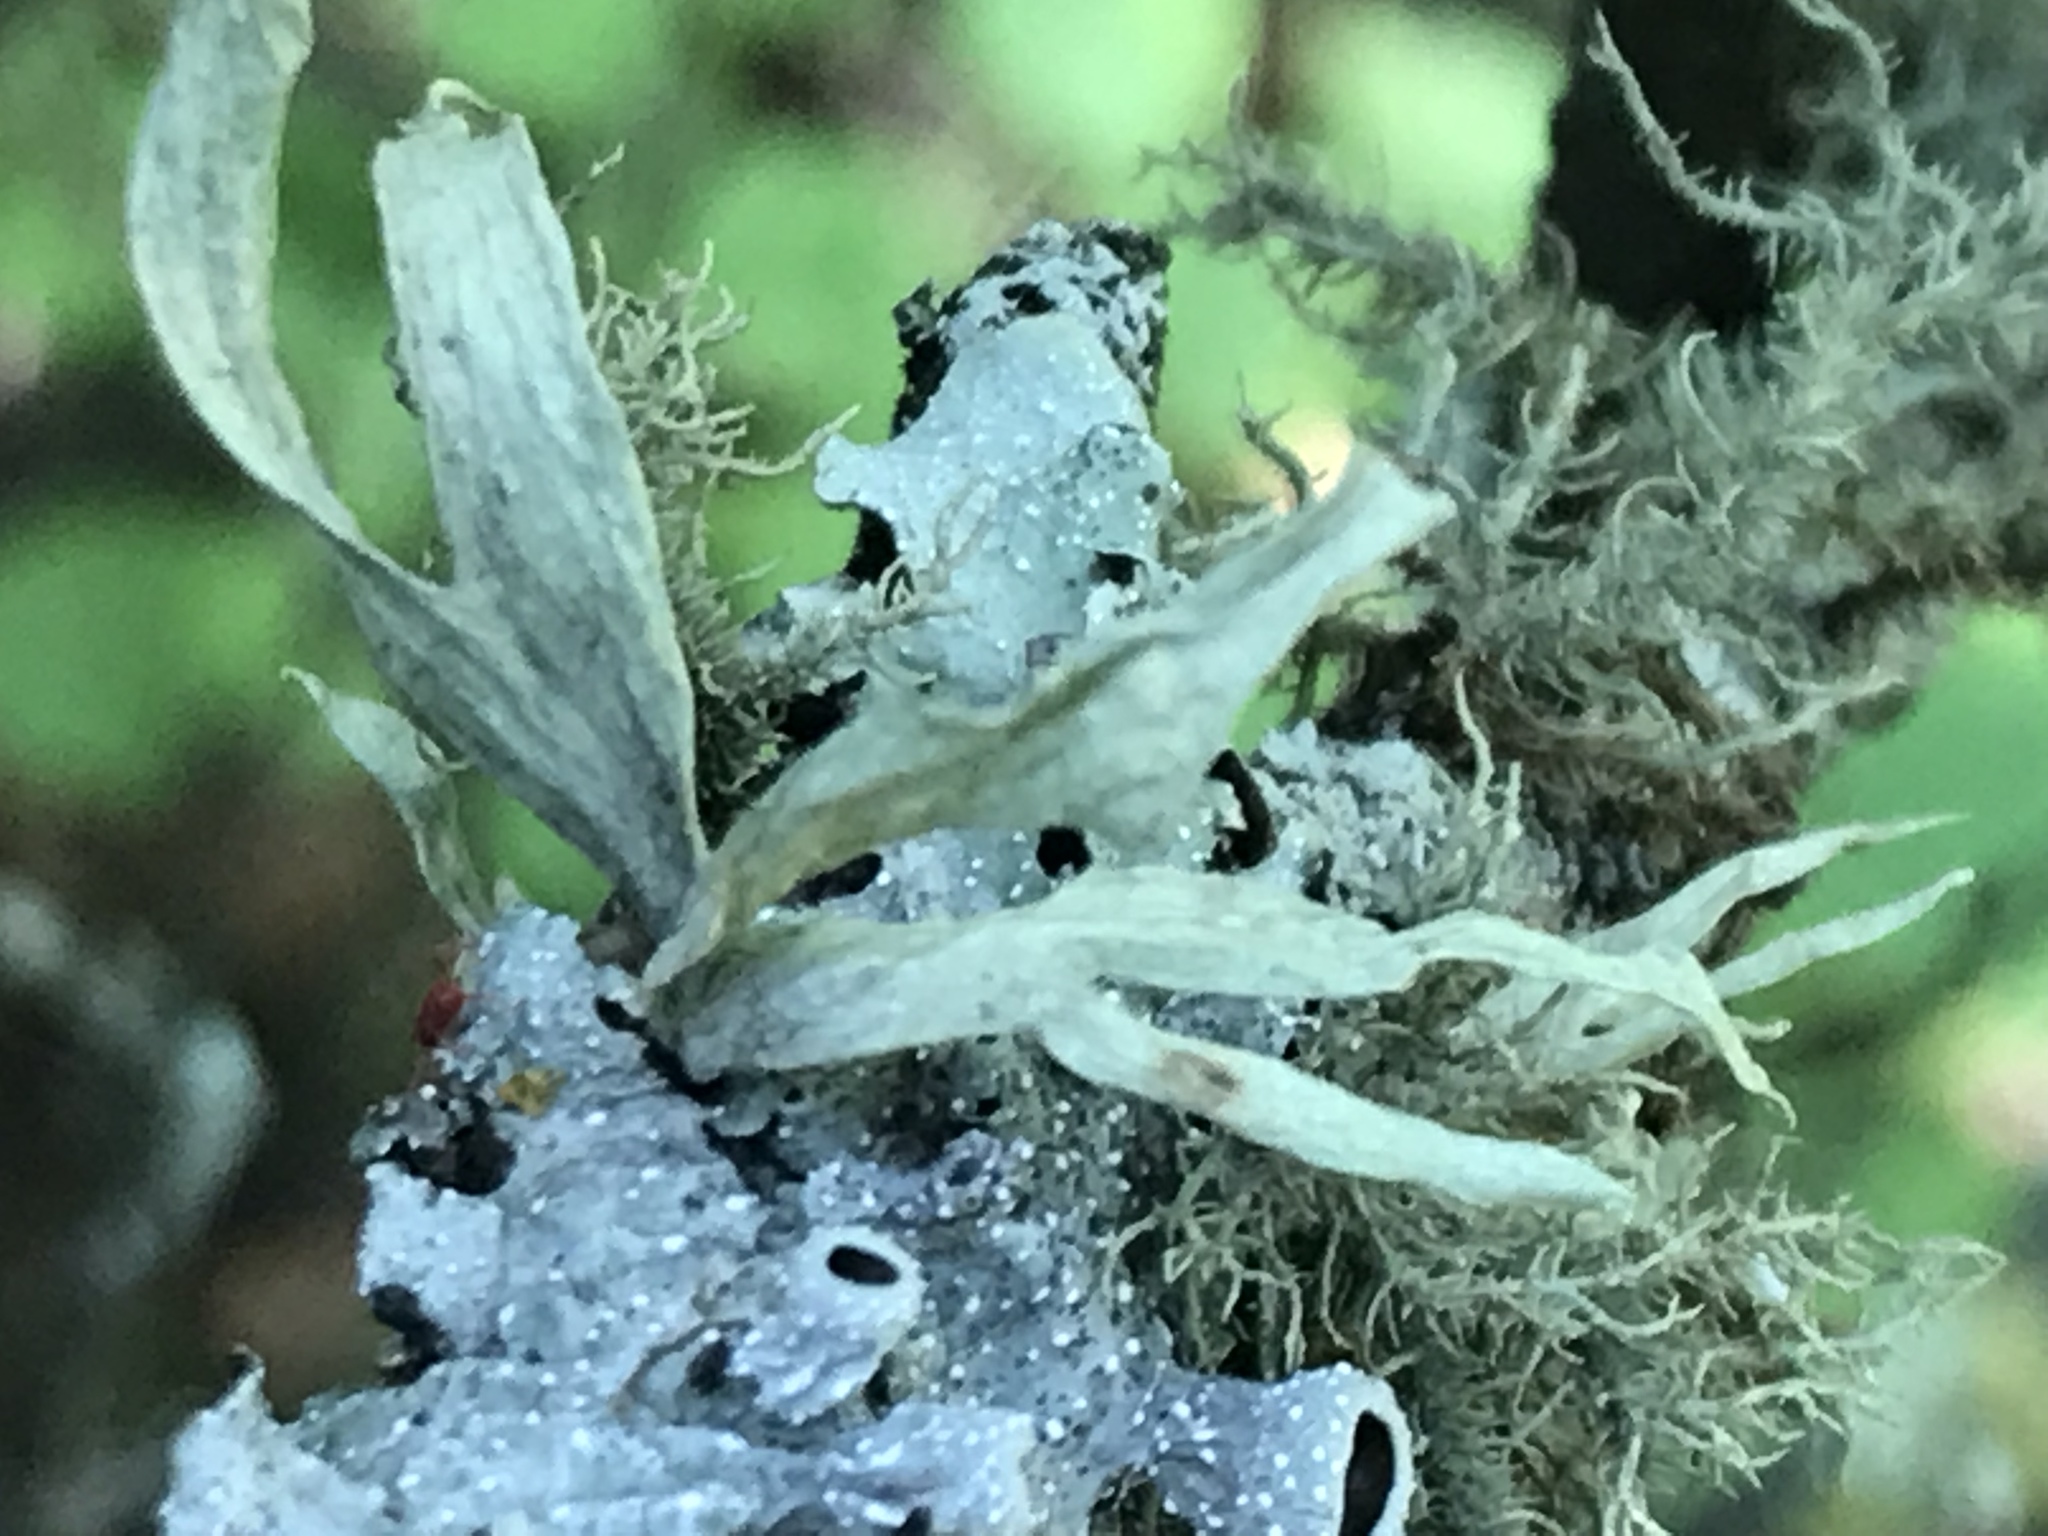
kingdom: Fungi
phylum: Ascomycota
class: Lecanoromycetes
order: Lecanorales
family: Ramalinaceae
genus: Ramalina
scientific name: Ramalina celastri
